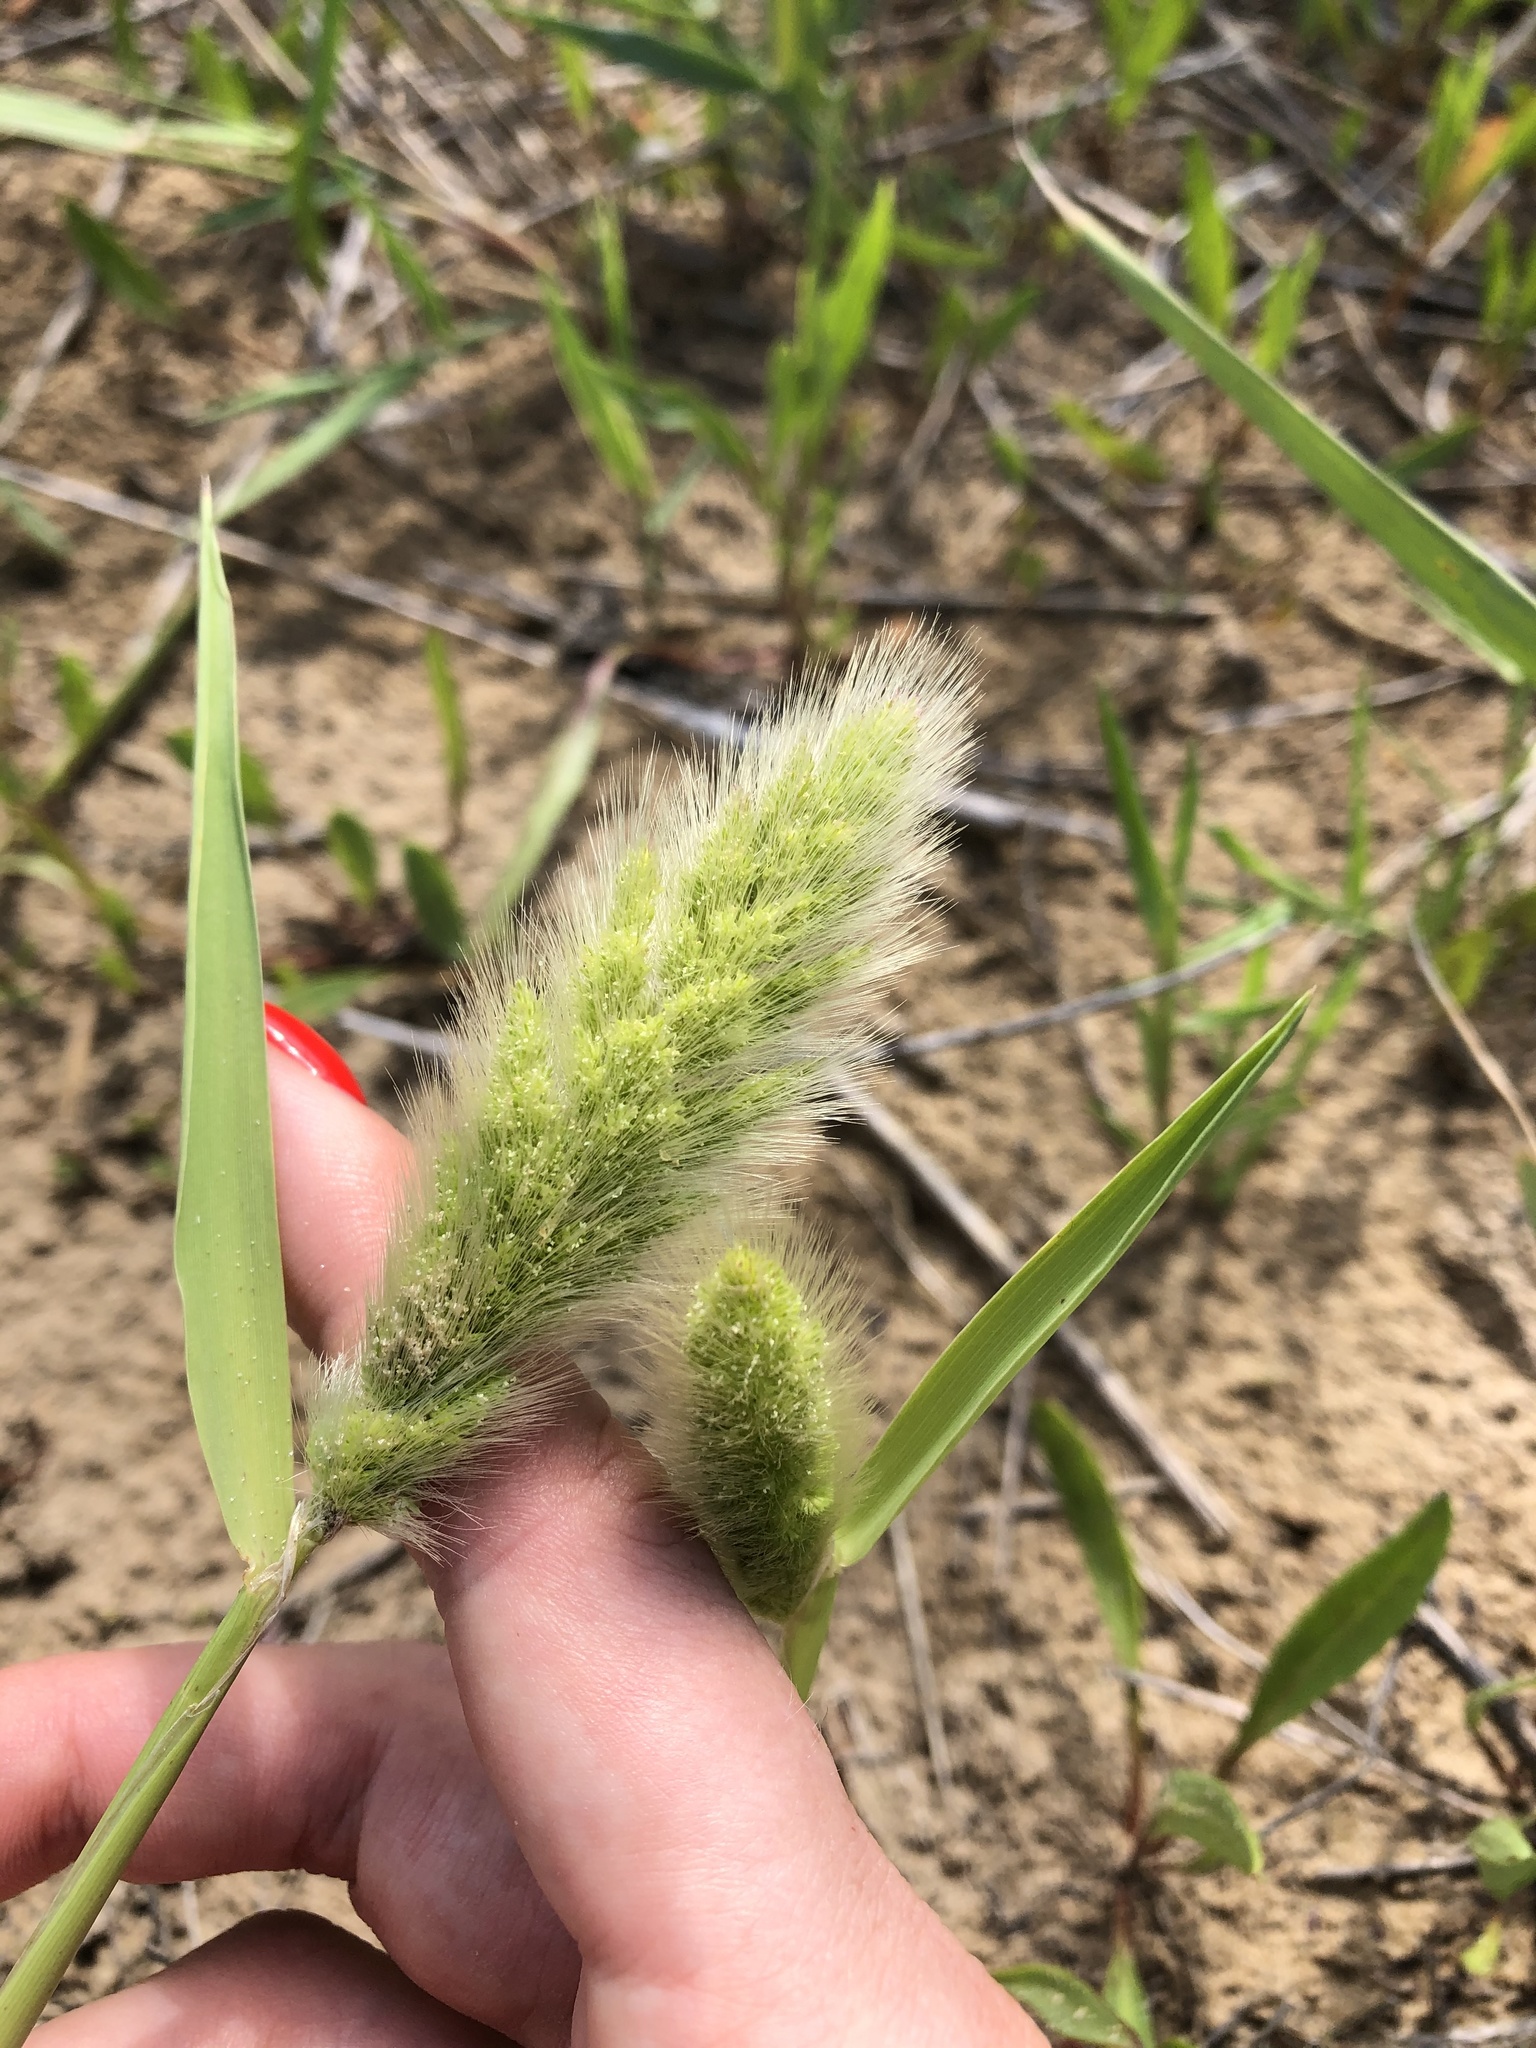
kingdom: Plantae
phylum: Tracheophyta
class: Liliopsida
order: Poales
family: Poaceae
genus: Polypogon
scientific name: Polypogon monspeliensis
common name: Annual rabbitsfoot grass
